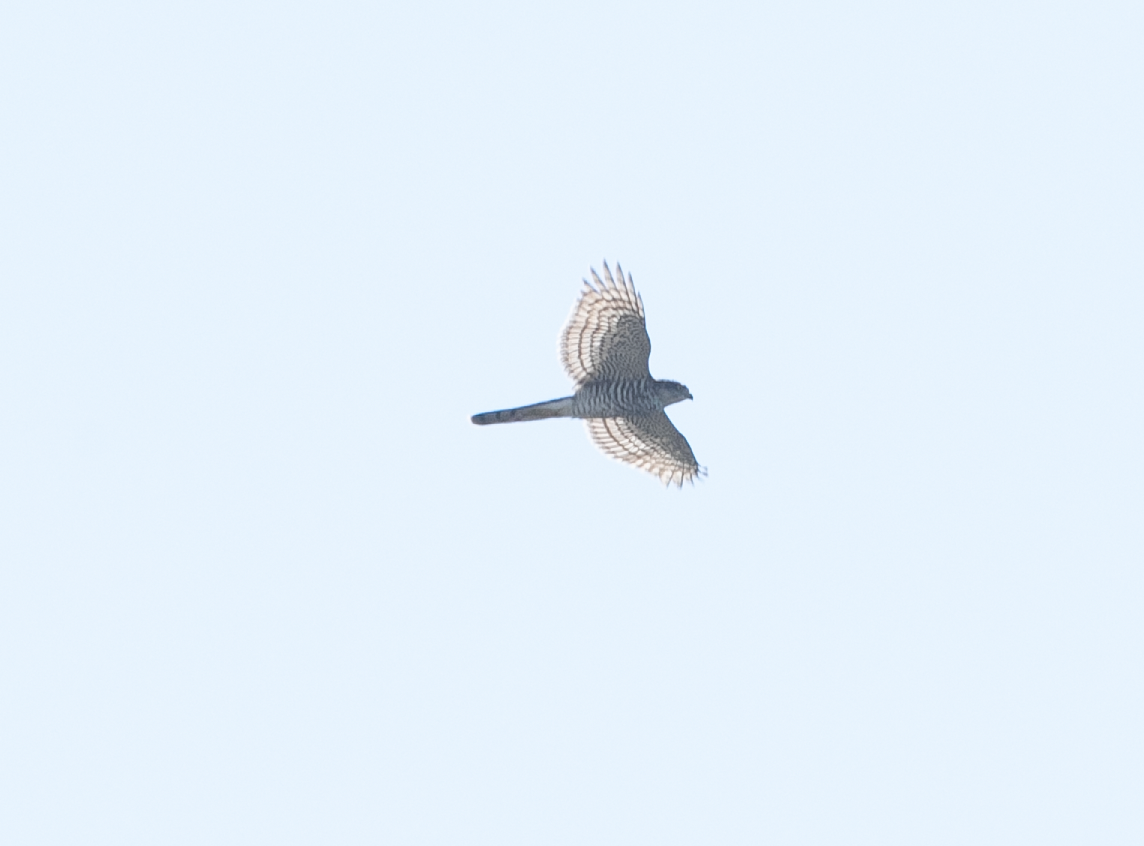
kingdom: Animalia
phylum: Chordata
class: Aves
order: Accipitriformes
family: Accipitridae
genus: Accipiter
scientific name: Accipiter nisus
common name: Eurasian sparrowhawk
